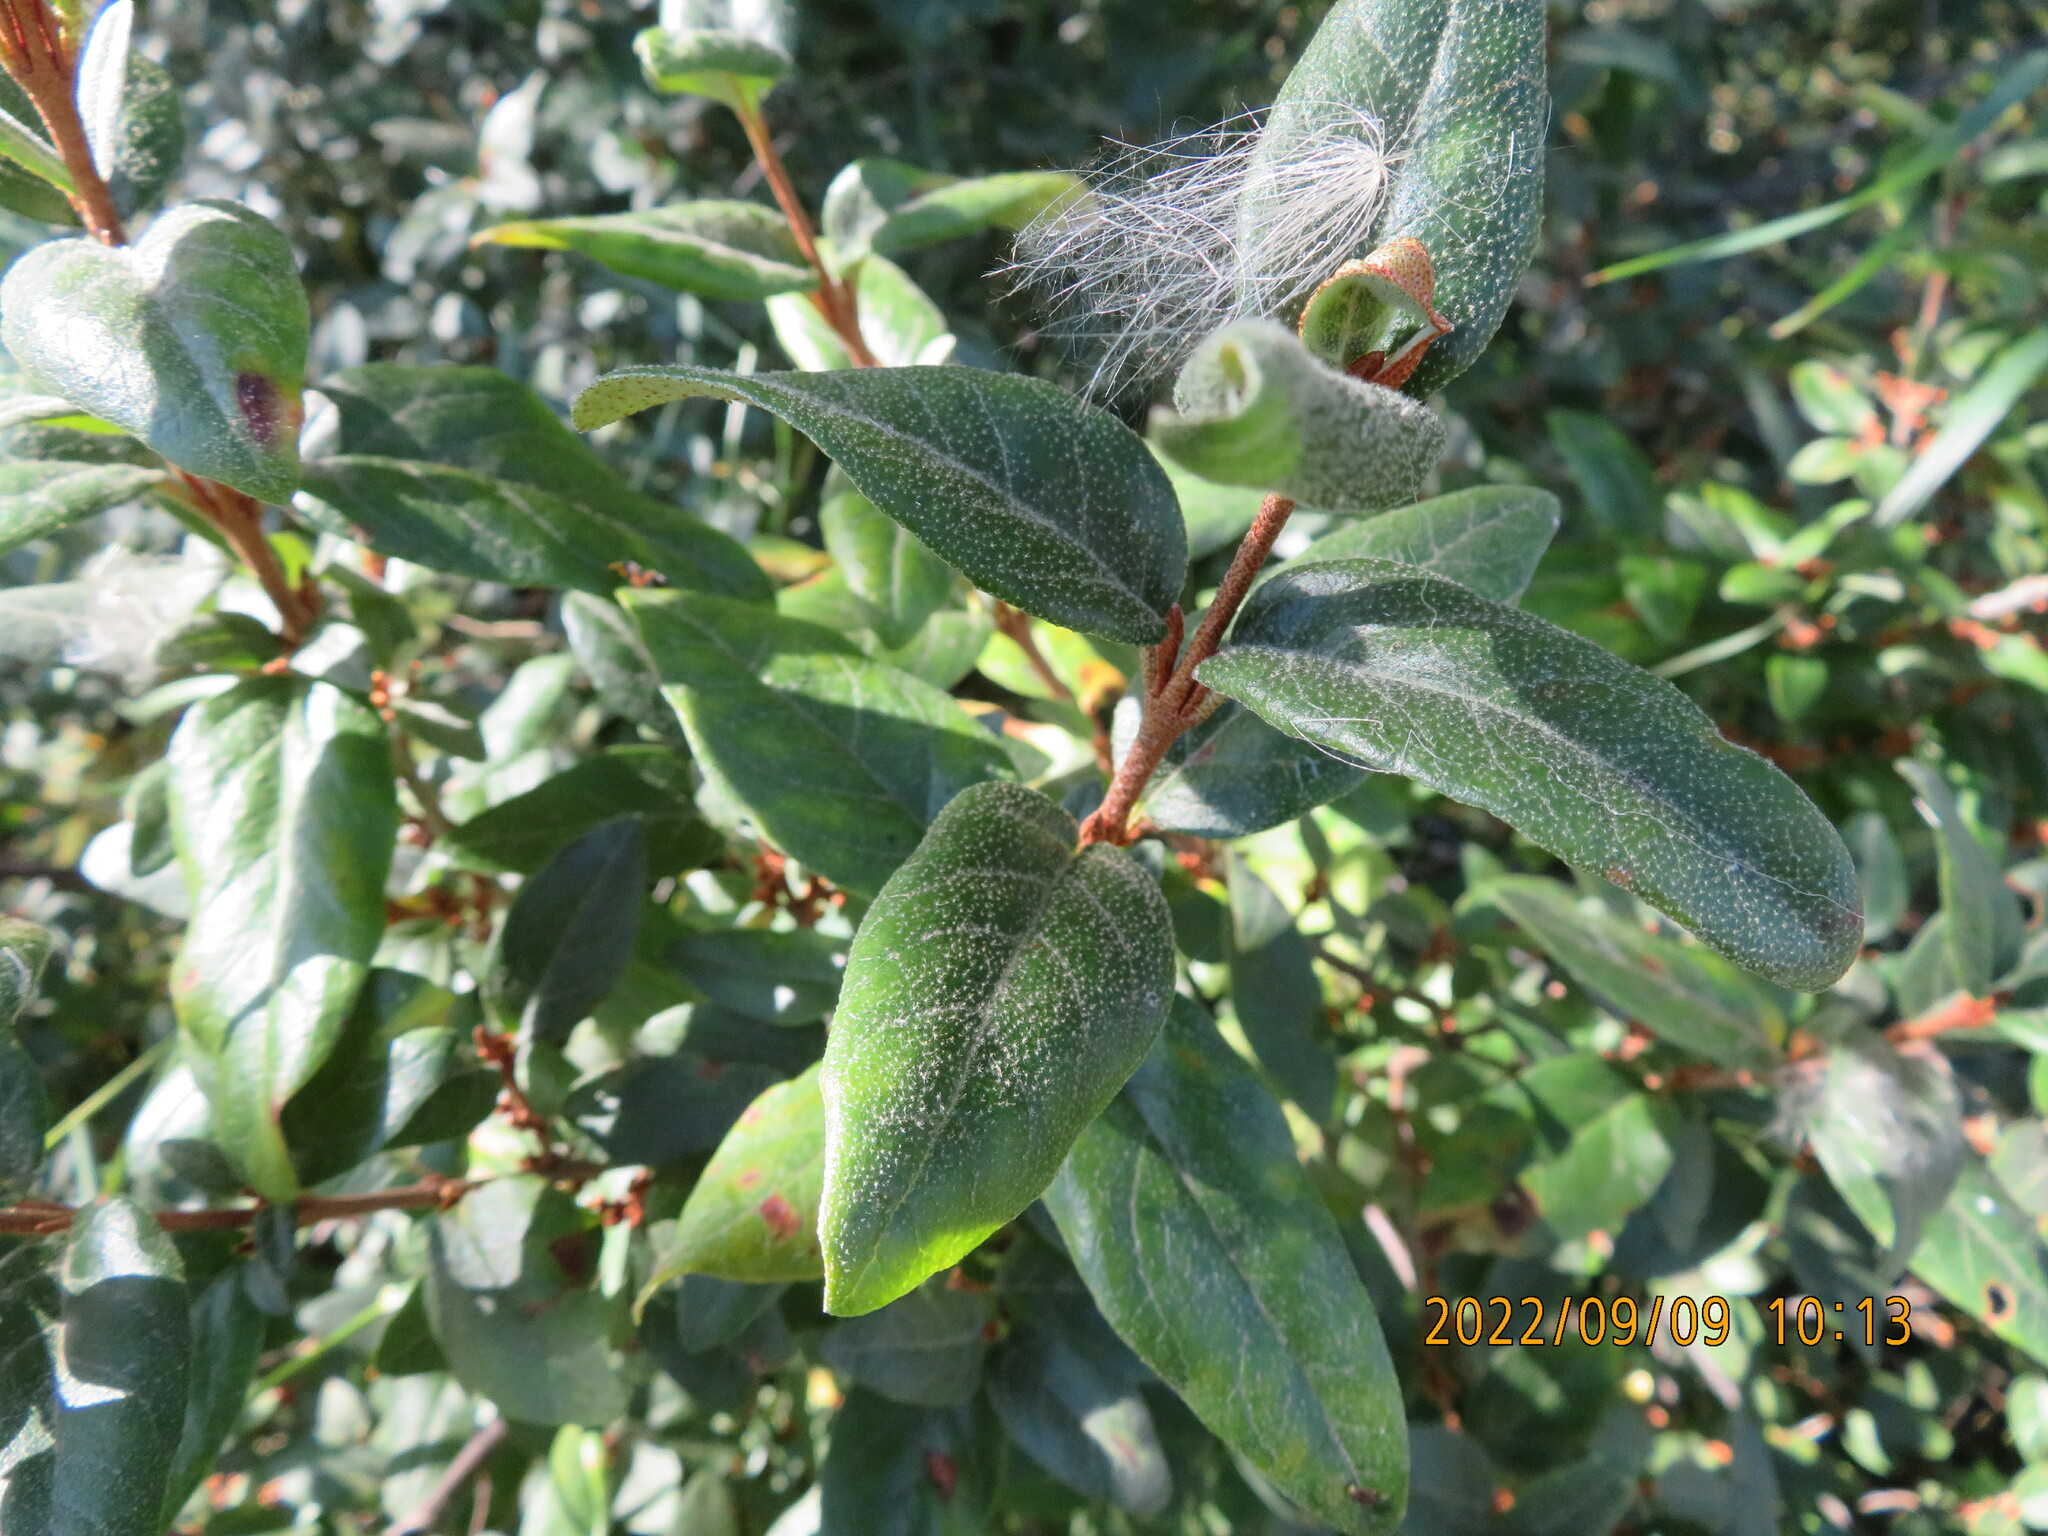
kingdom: Plantae
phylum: Tracheophyta
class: Magnoliopsida
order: Rosales
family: Elaeagnaceae
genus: Shepherdia
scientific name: Shepherdia canadensis
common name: Soapberry
